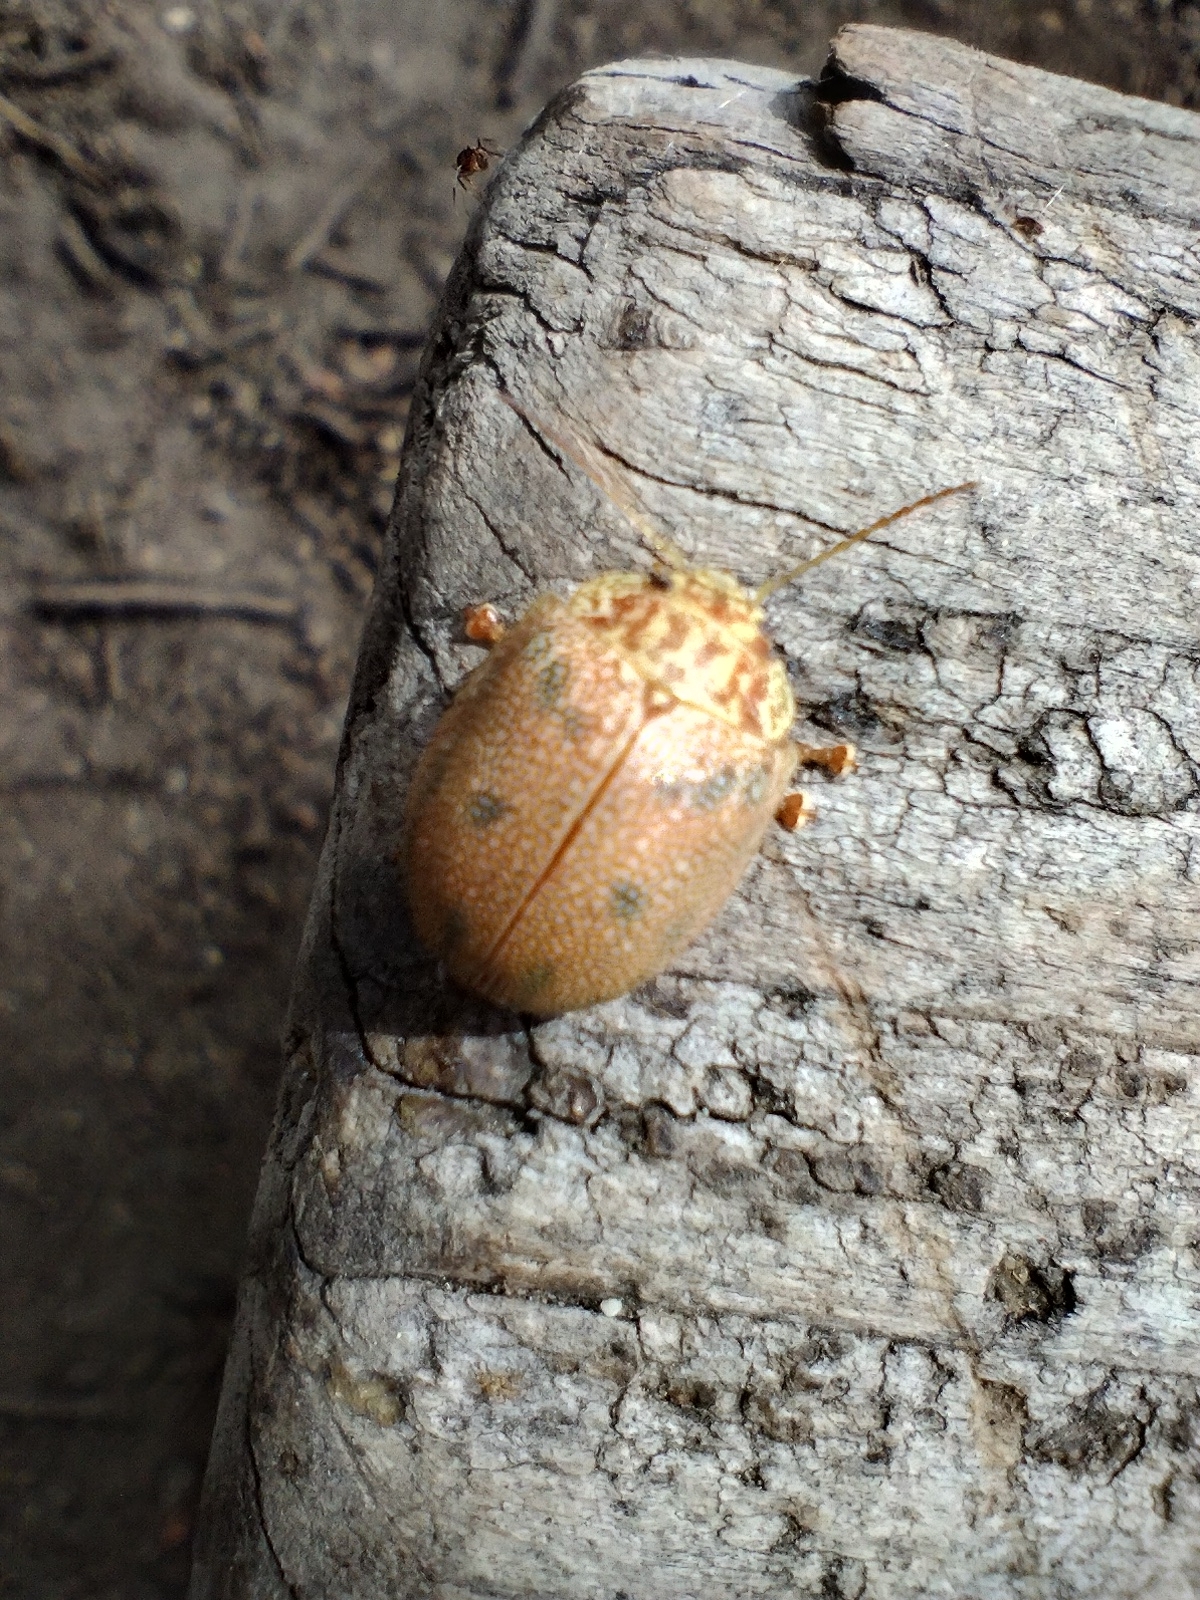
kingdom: Animalia
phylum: Arthropoda
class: Insecta
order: Coleoptera
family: Chrysomelidae
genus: Paropsis
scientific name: Paropsis
